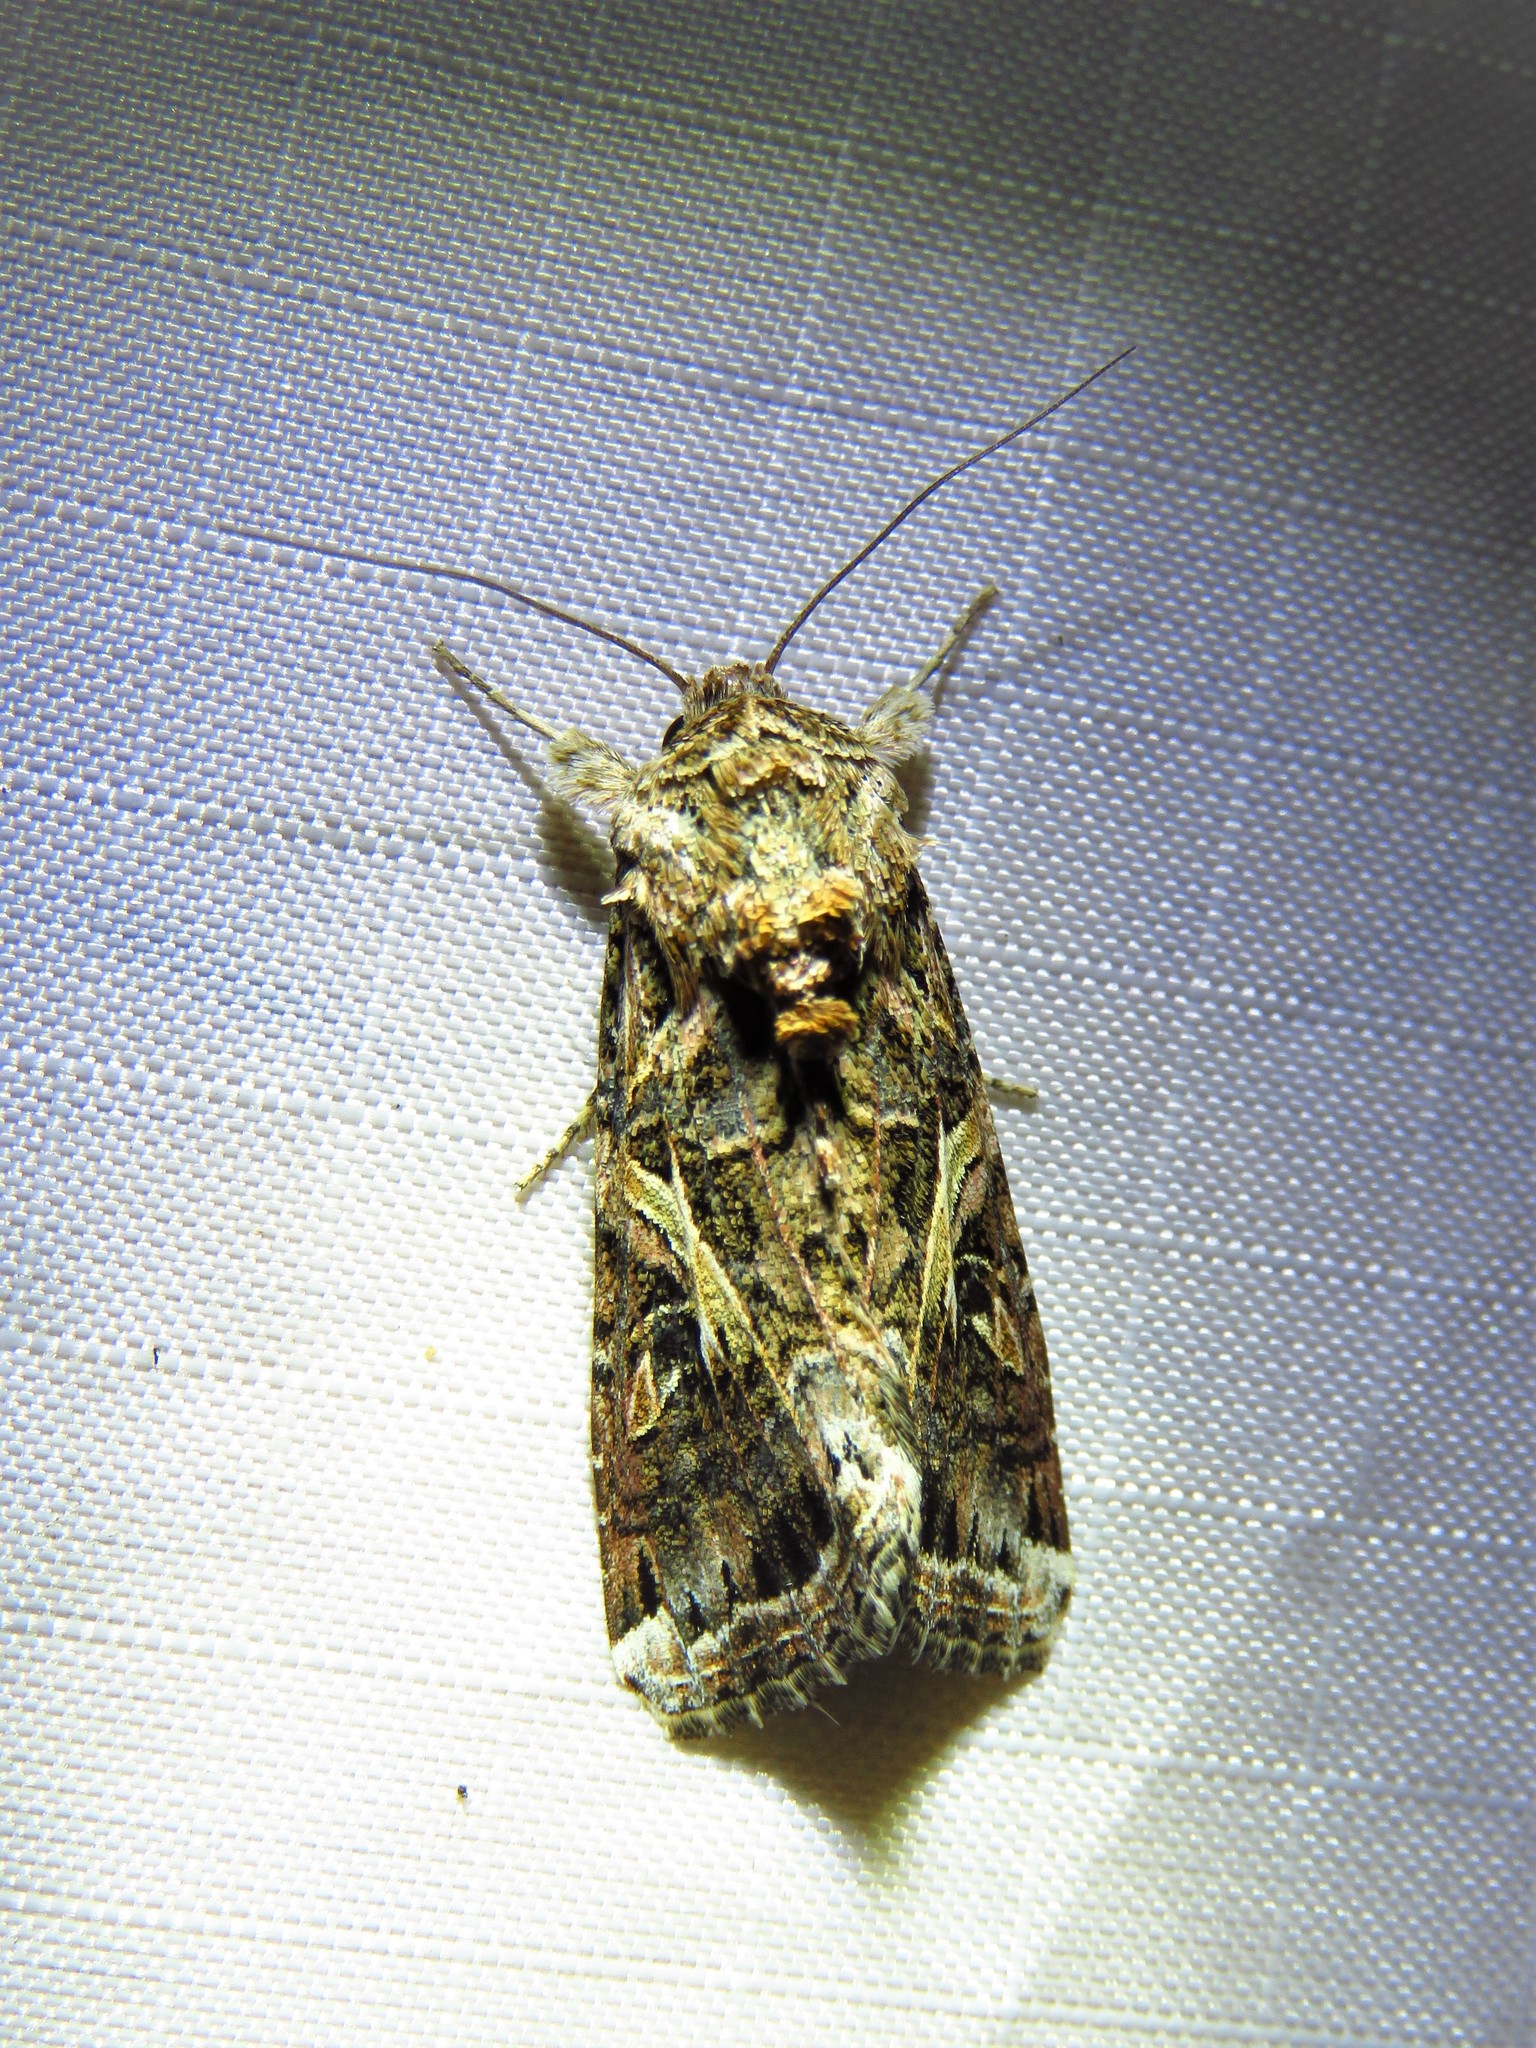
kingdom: Animalia
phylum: Arthropoda
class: Insecta
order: Lepidoptera
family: Noctuidae
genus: Spodoptera
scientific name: Spodoptera ornithogalli
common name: Yellow-striped armyworm
